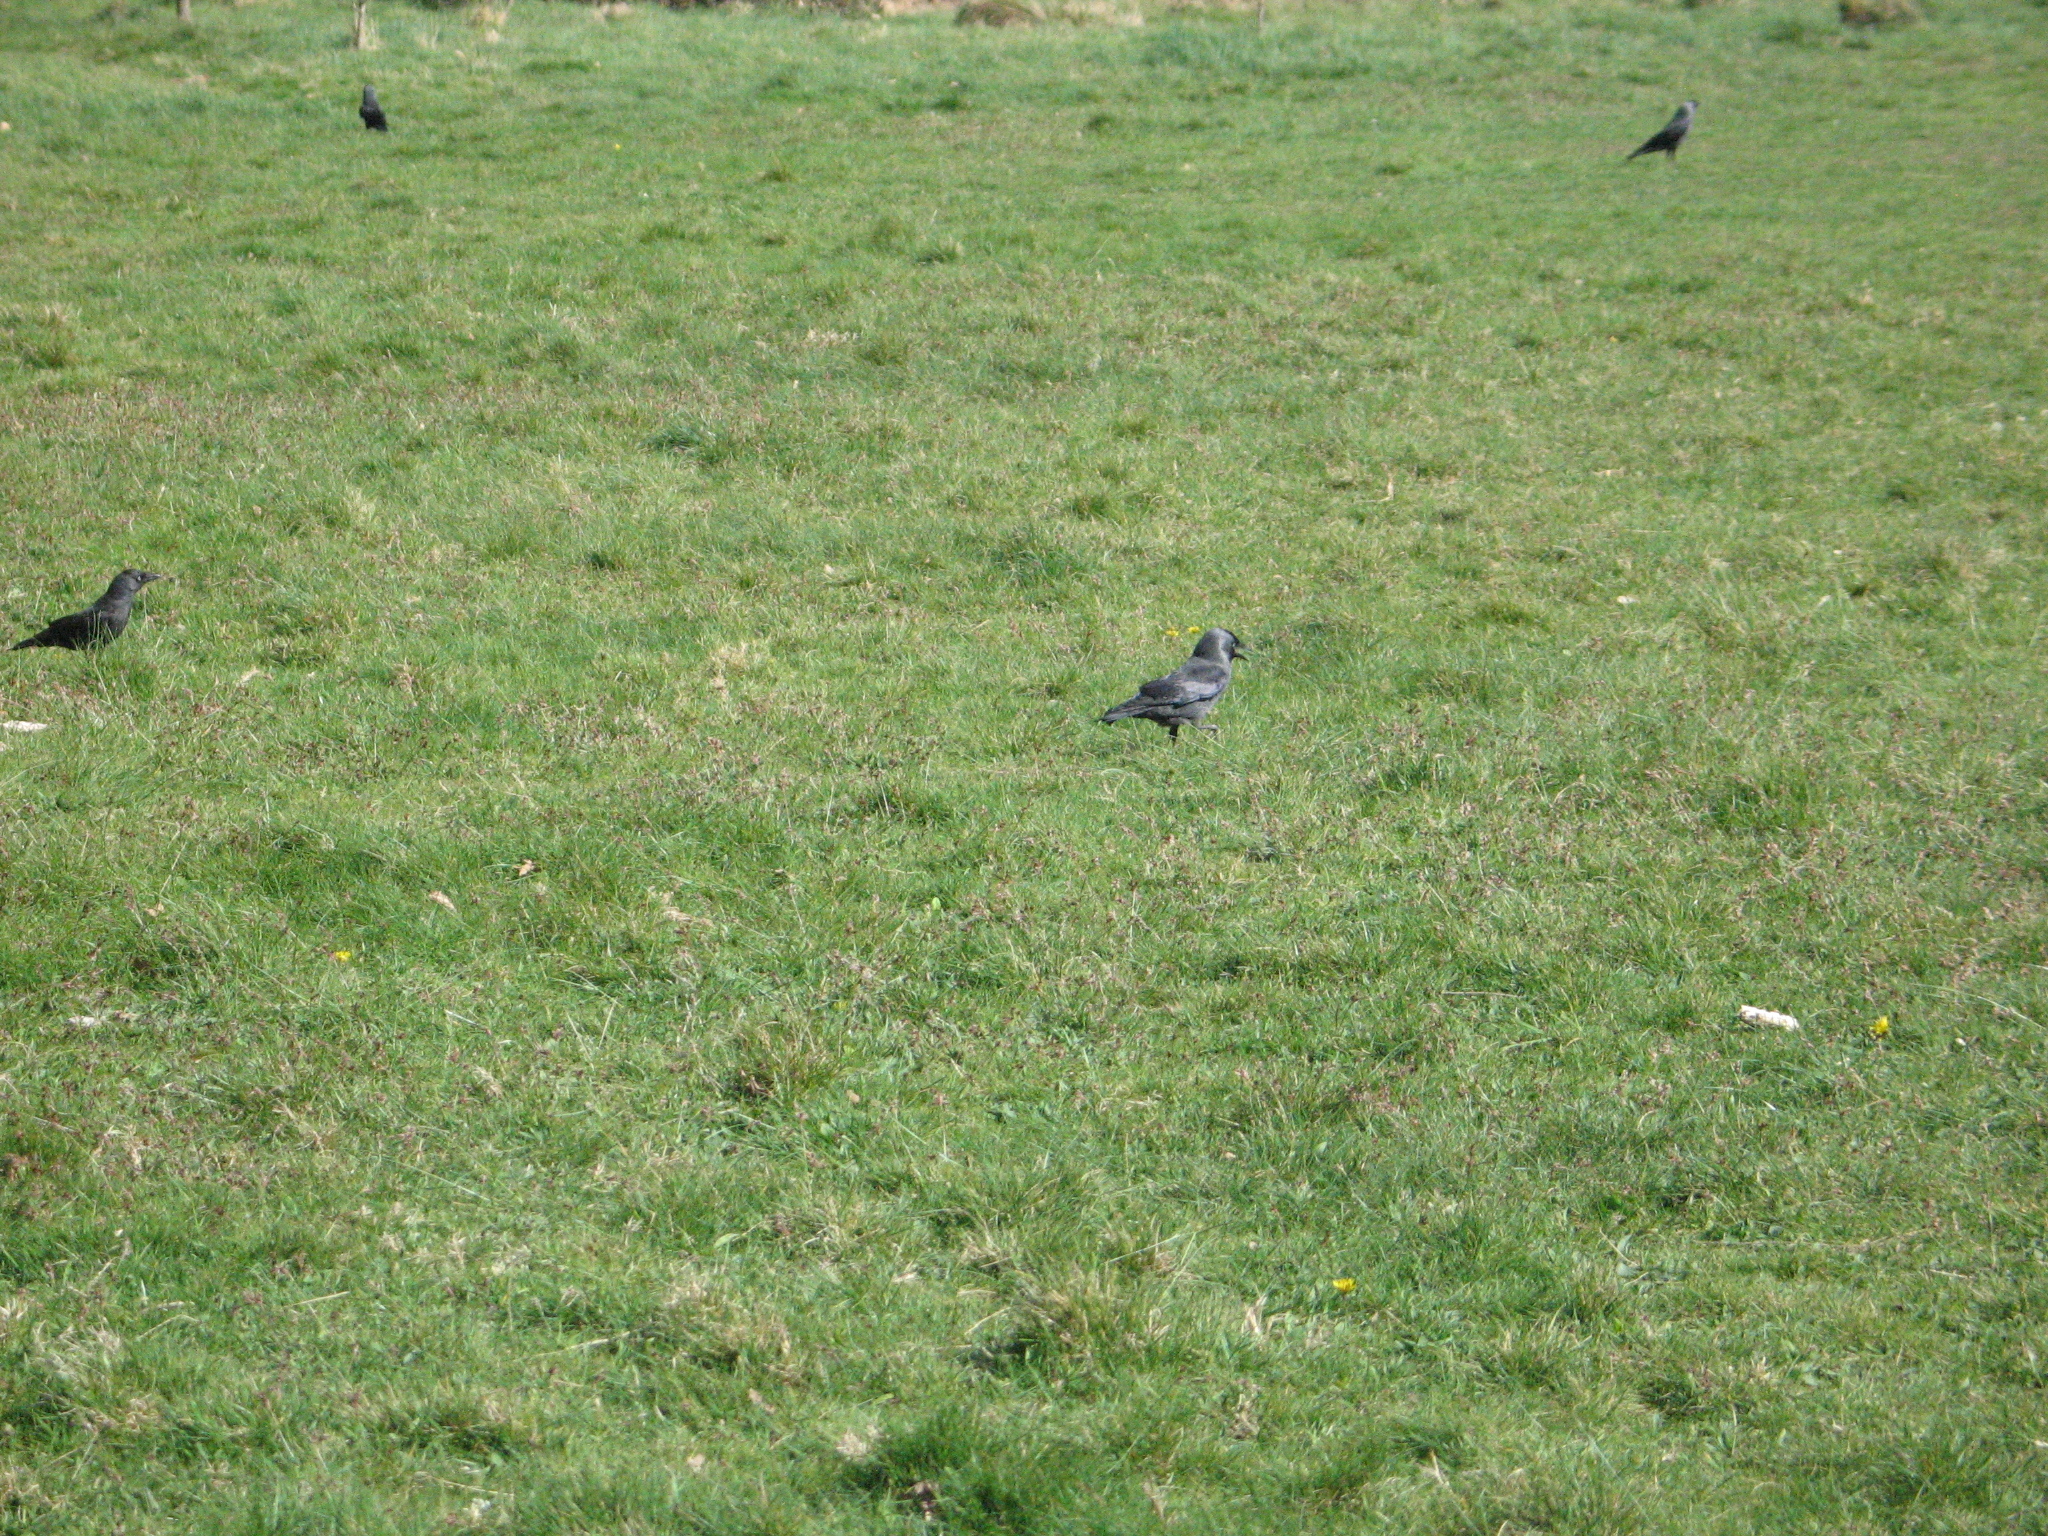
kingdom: Animalia
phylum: Chordata
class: Aves
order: Passeriformes
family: Corvidae
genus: Coloeus
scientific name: Coloeus monedula
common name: Western jackdaw
